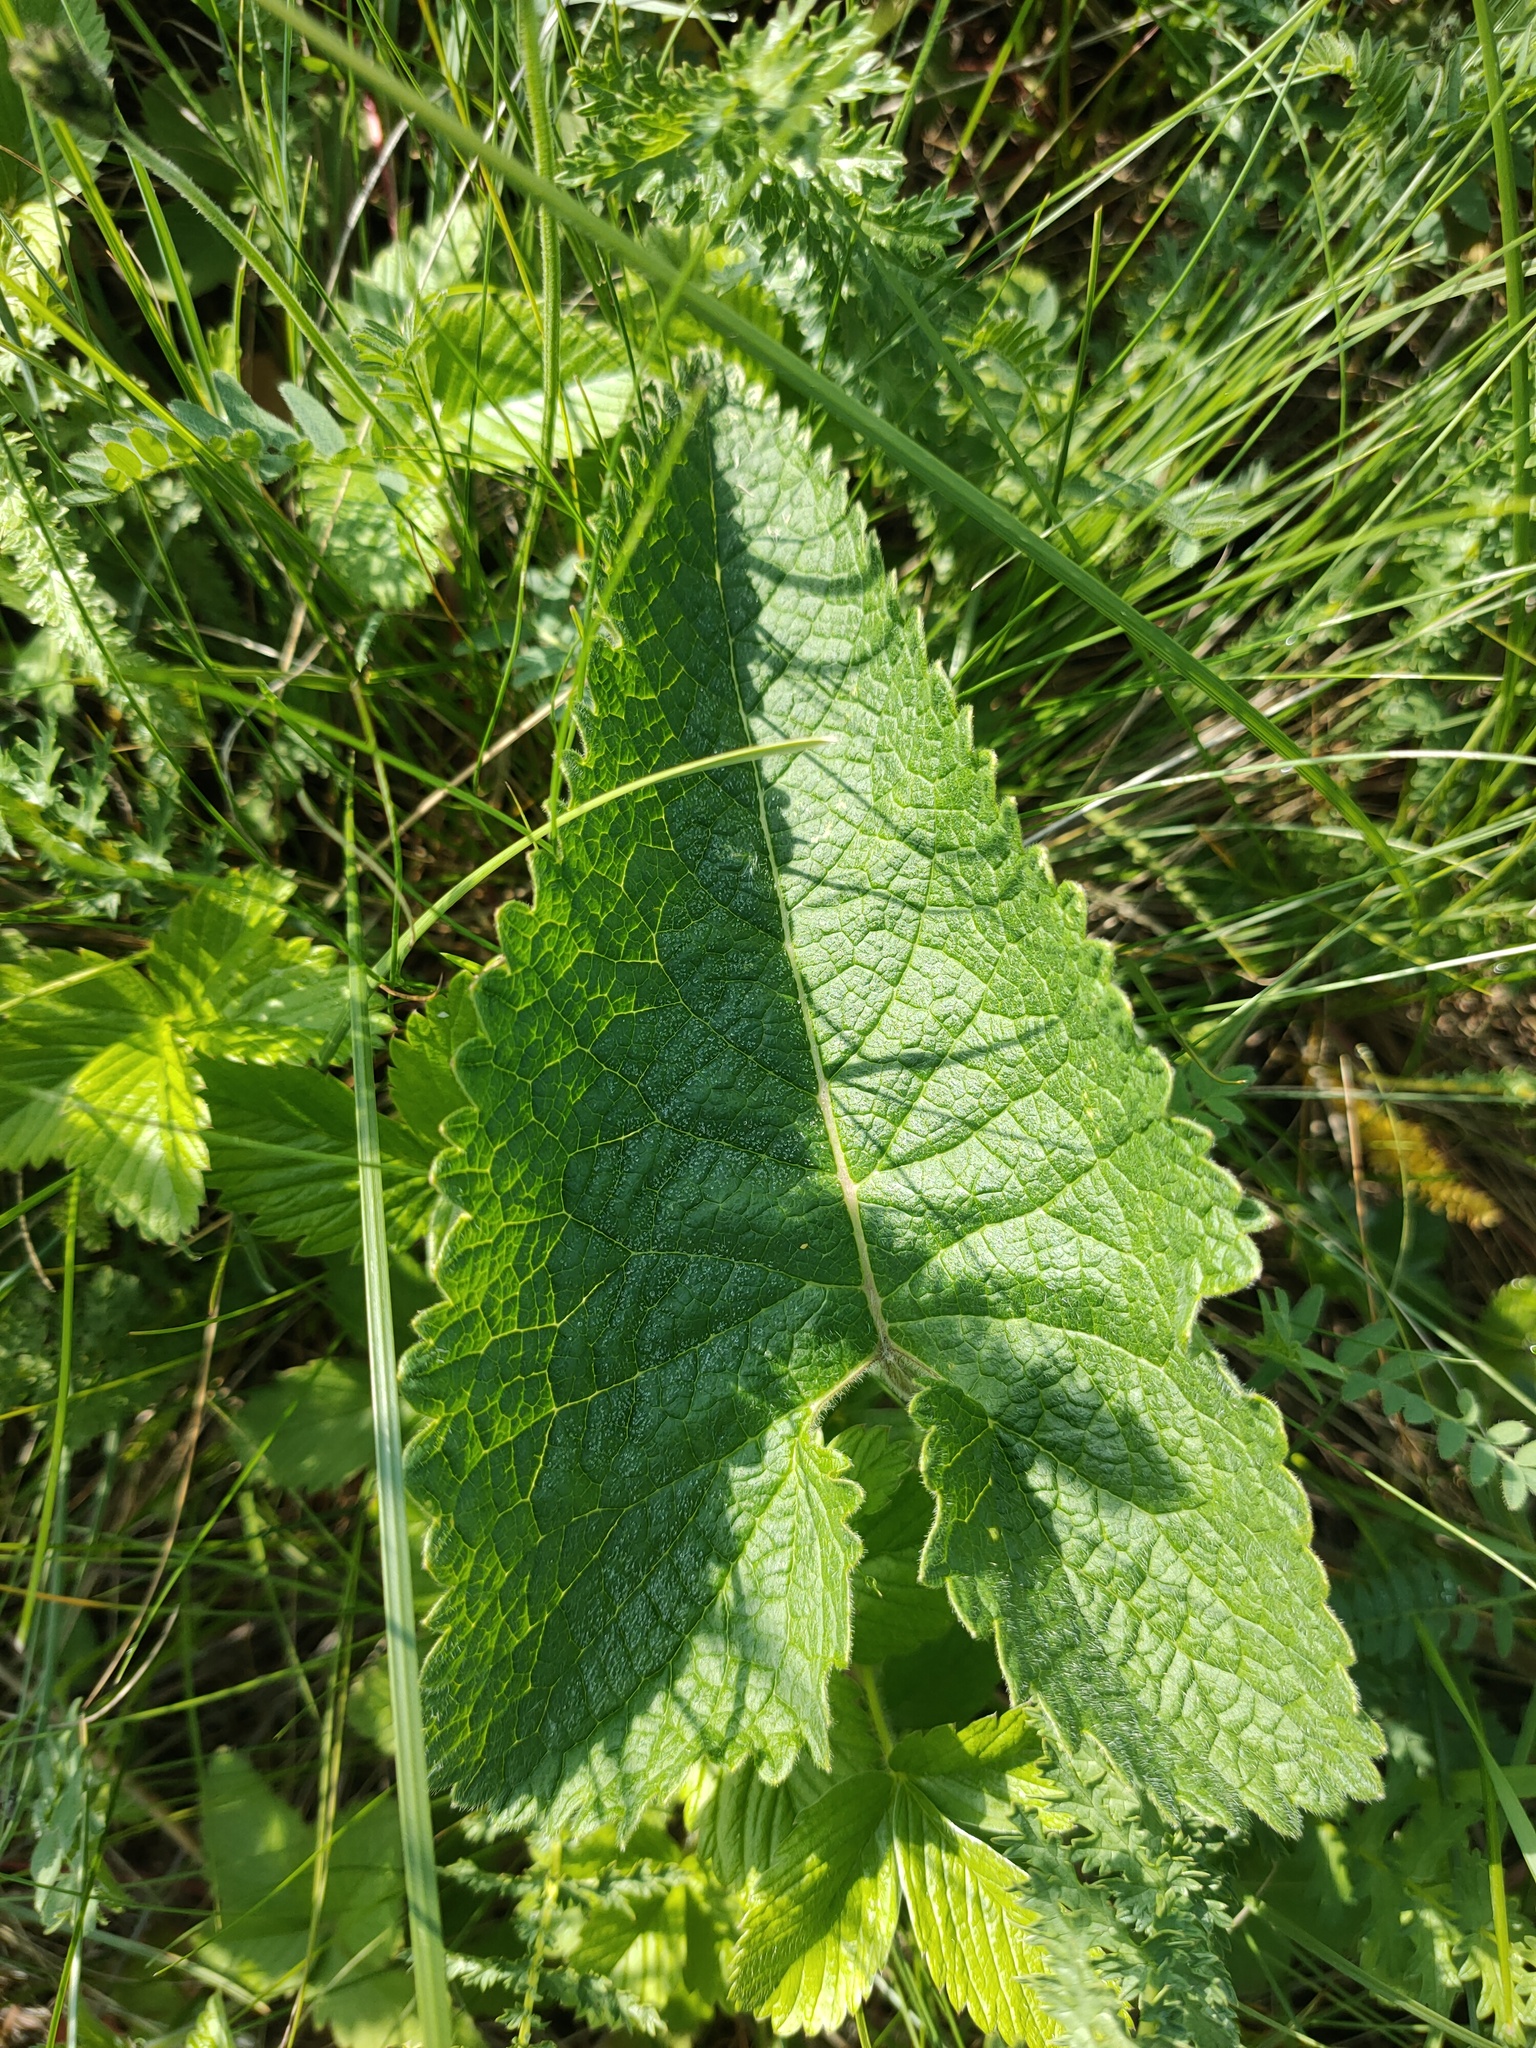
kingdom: Plantae
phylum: Tracheophyta
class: Magnoliopsida
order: Lamiales
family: Lamiaceae
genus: Phlomoides
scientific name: Phlomoides tuberosa
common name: Tuberous jerusalem sage
